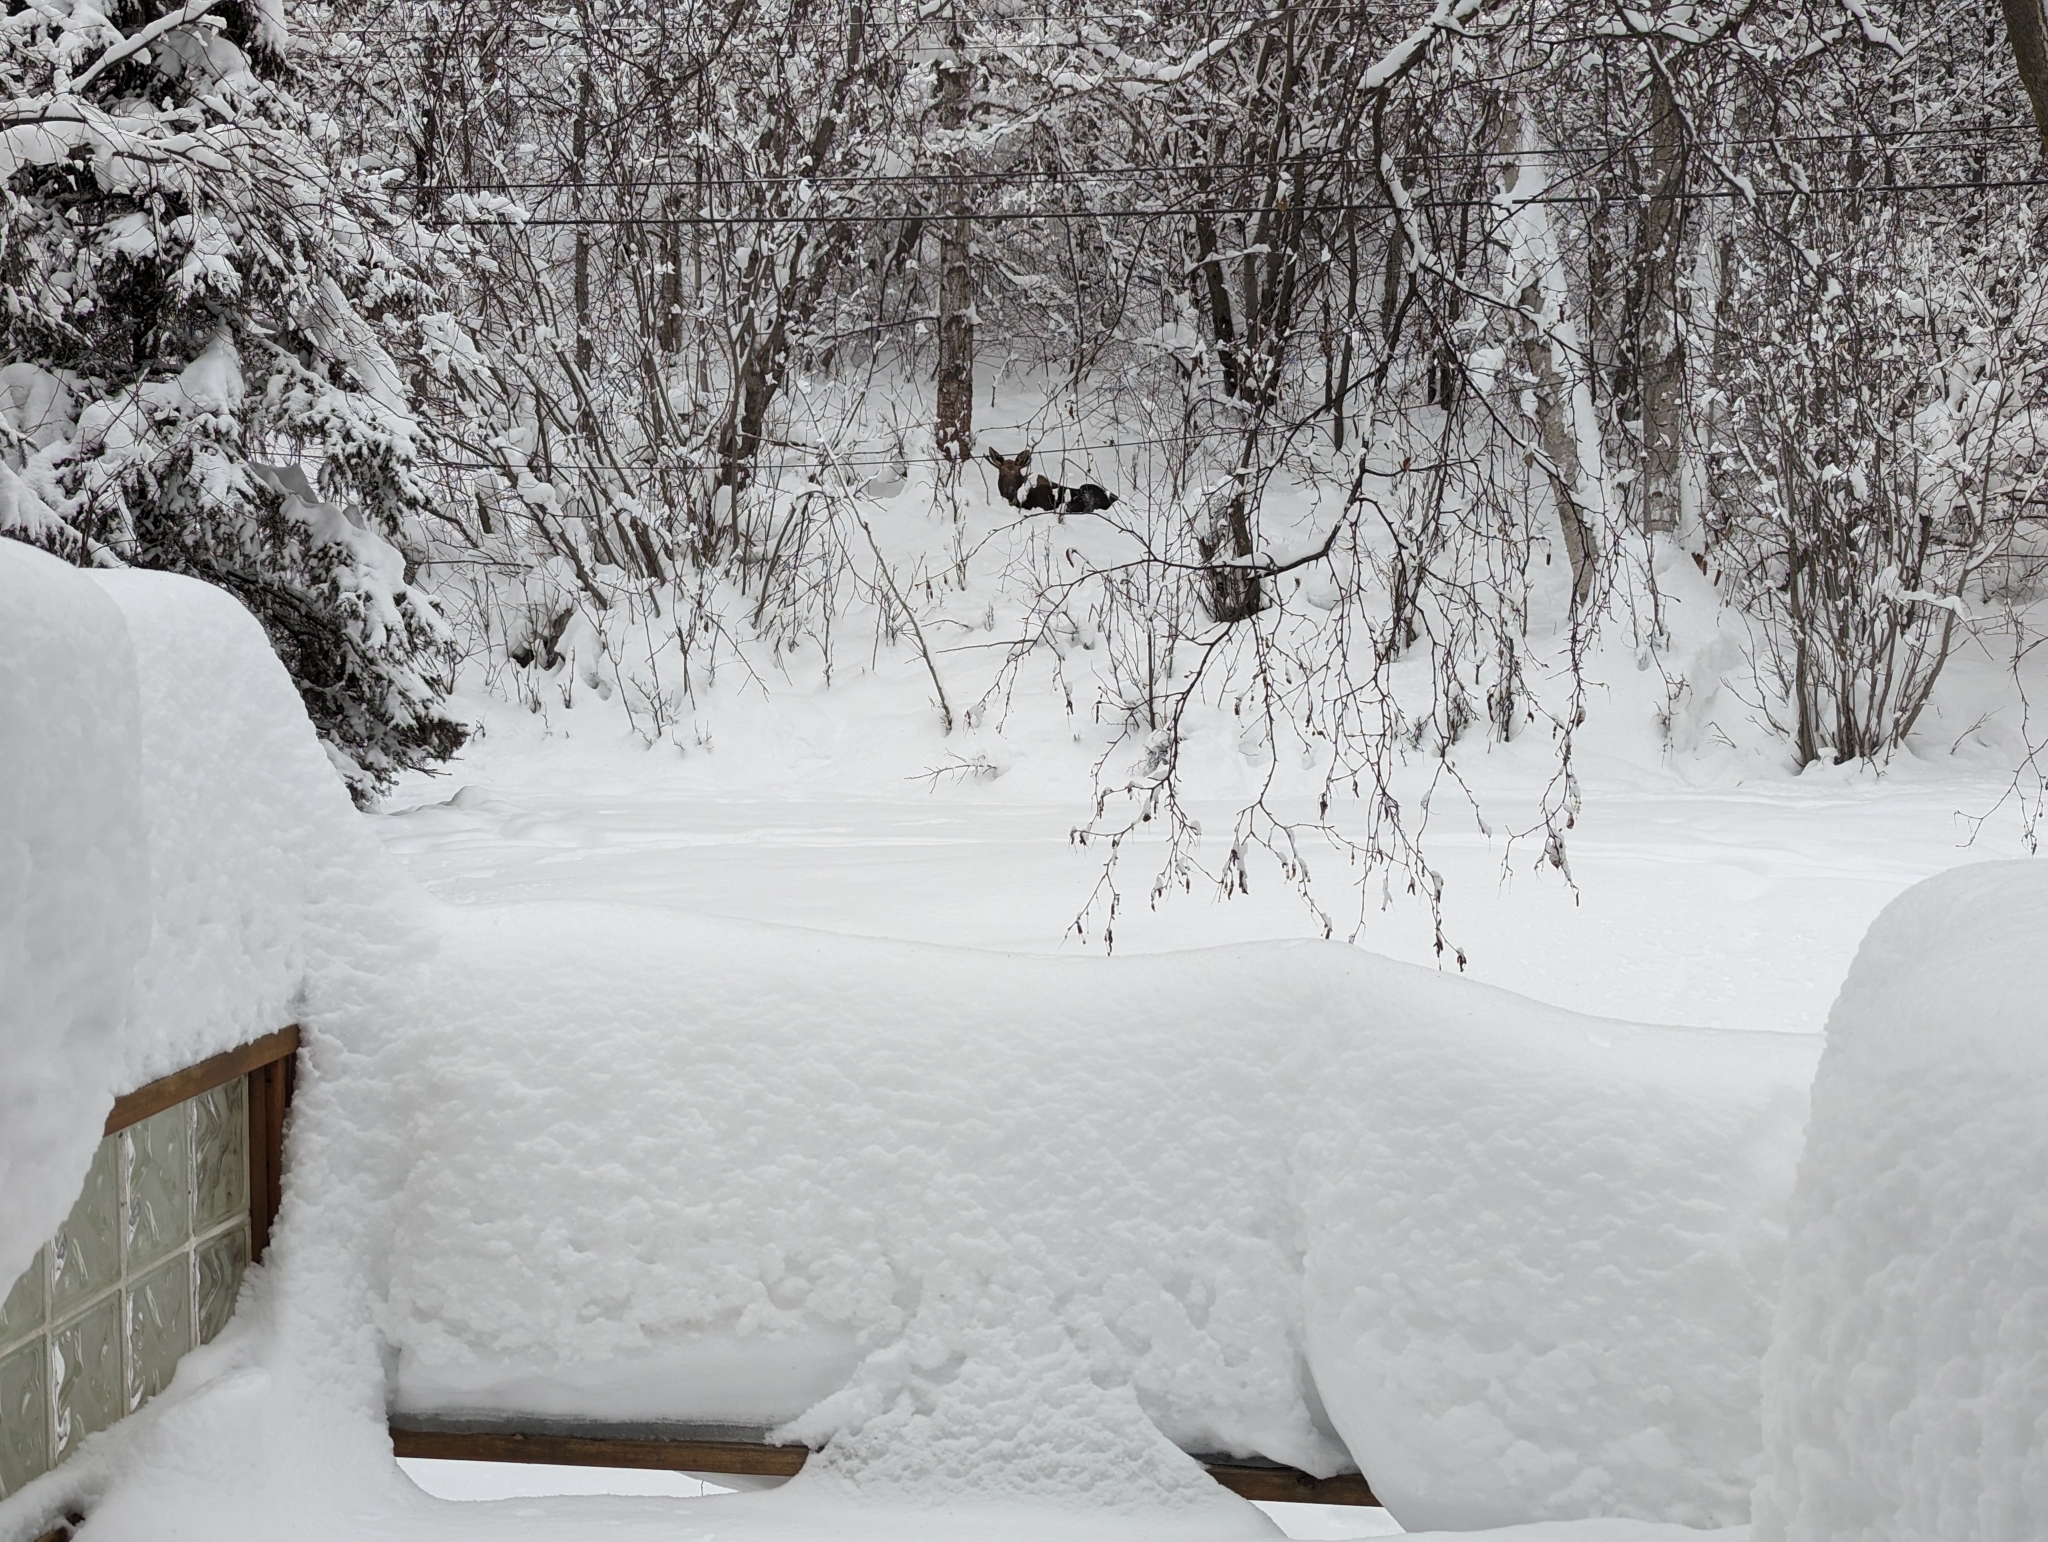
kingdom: Animalia
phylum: Chordata
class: Mammalia
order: Artiodactyla
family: Cervidae
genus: Alces
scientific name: Alces alces
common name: Moose
